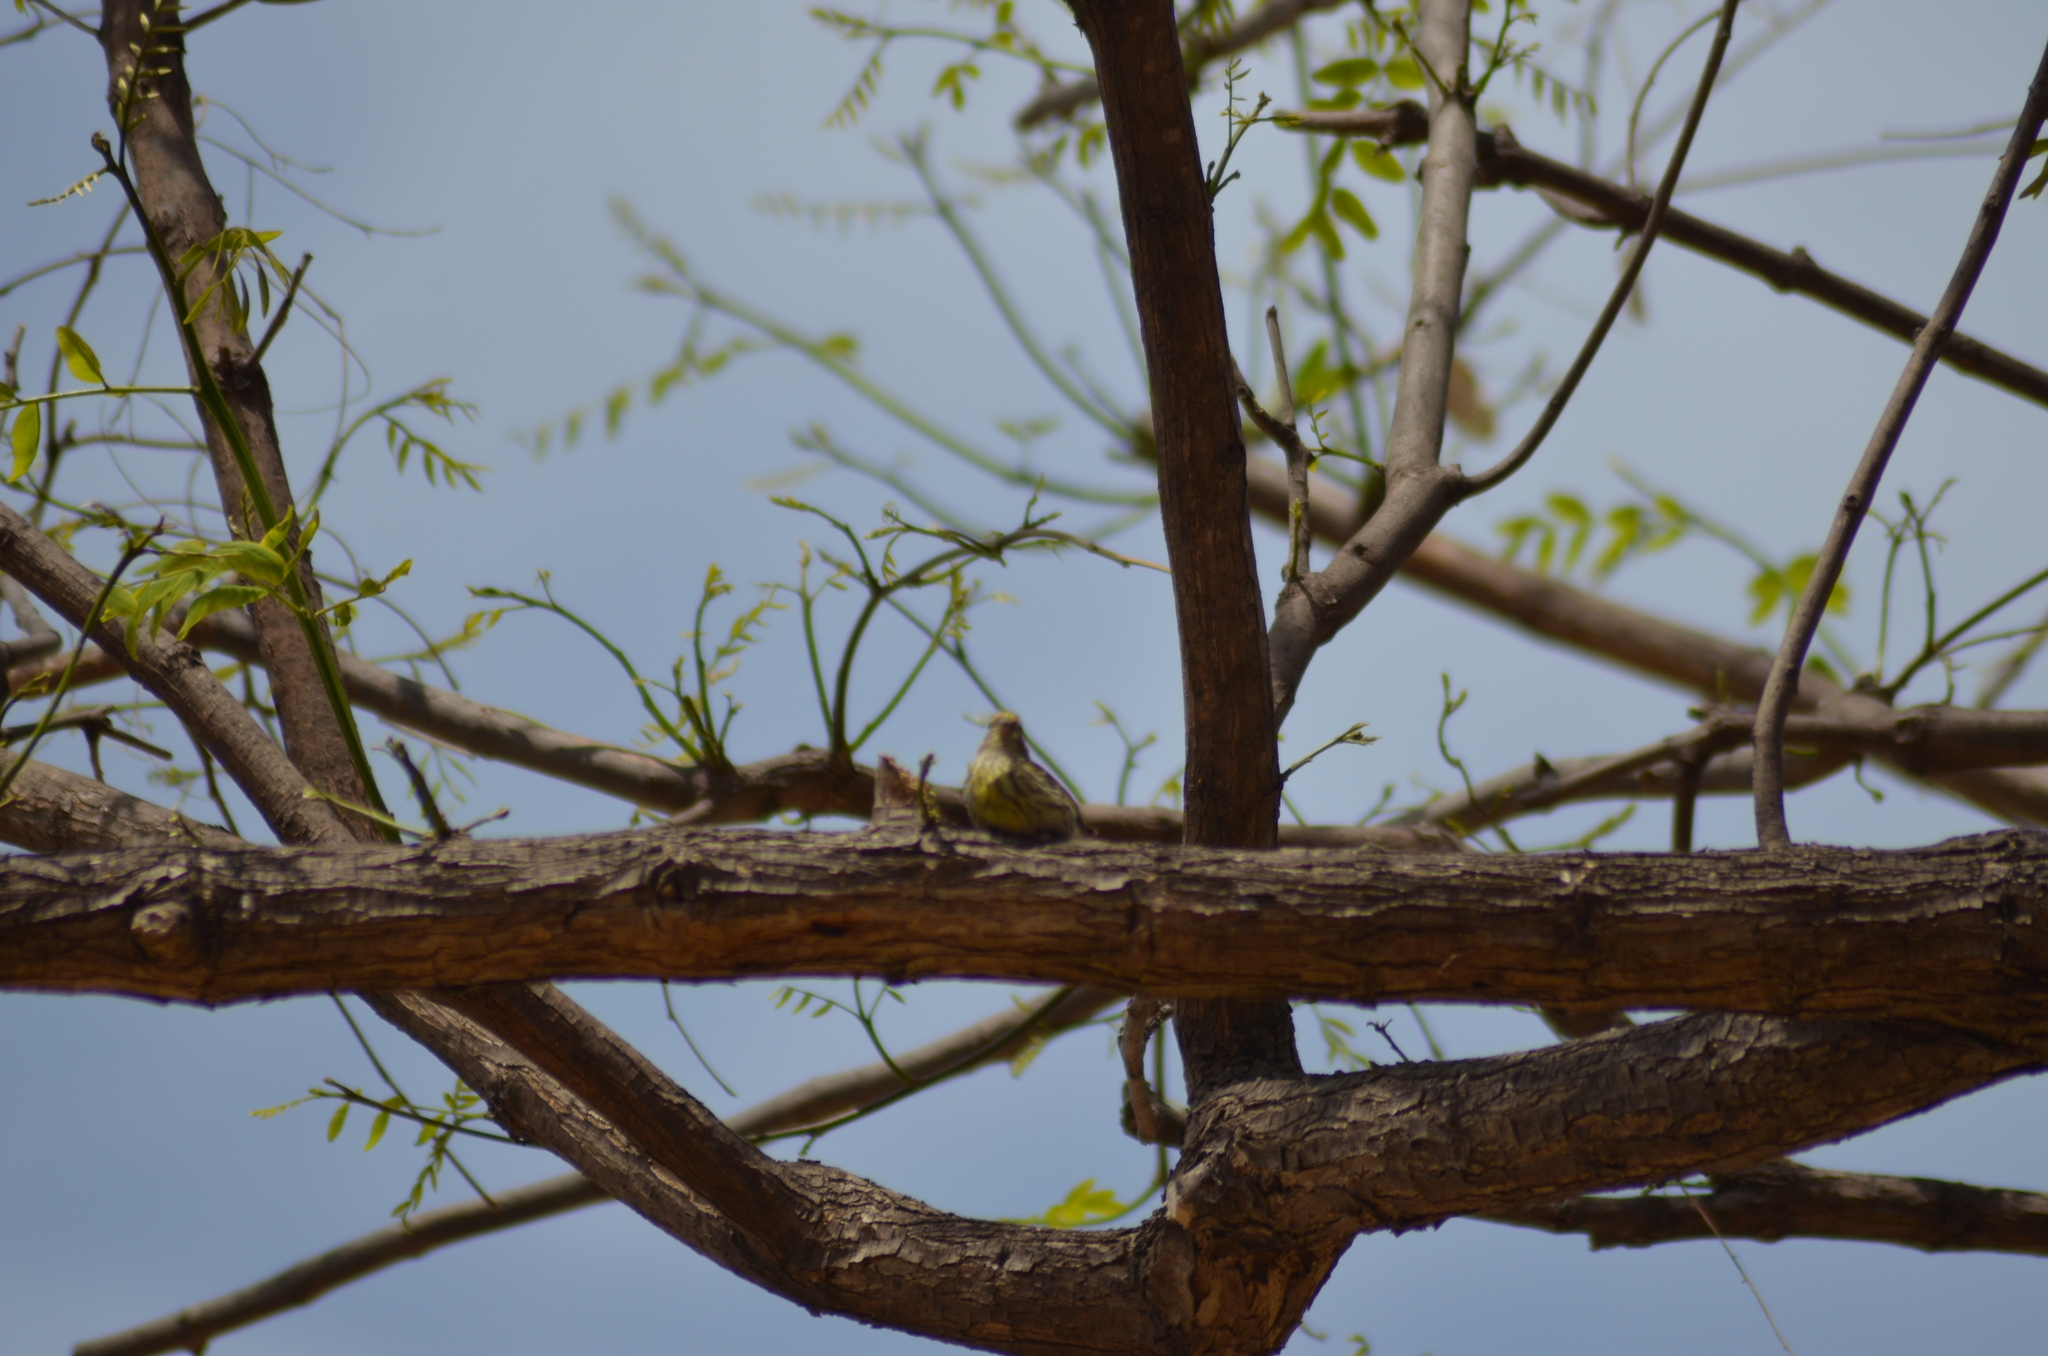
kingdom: Animalia
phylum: Chordata
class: Aves
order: Passeriformes
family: Fringillidae
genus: Serinus
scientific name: Serinus serinus
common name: European serin
